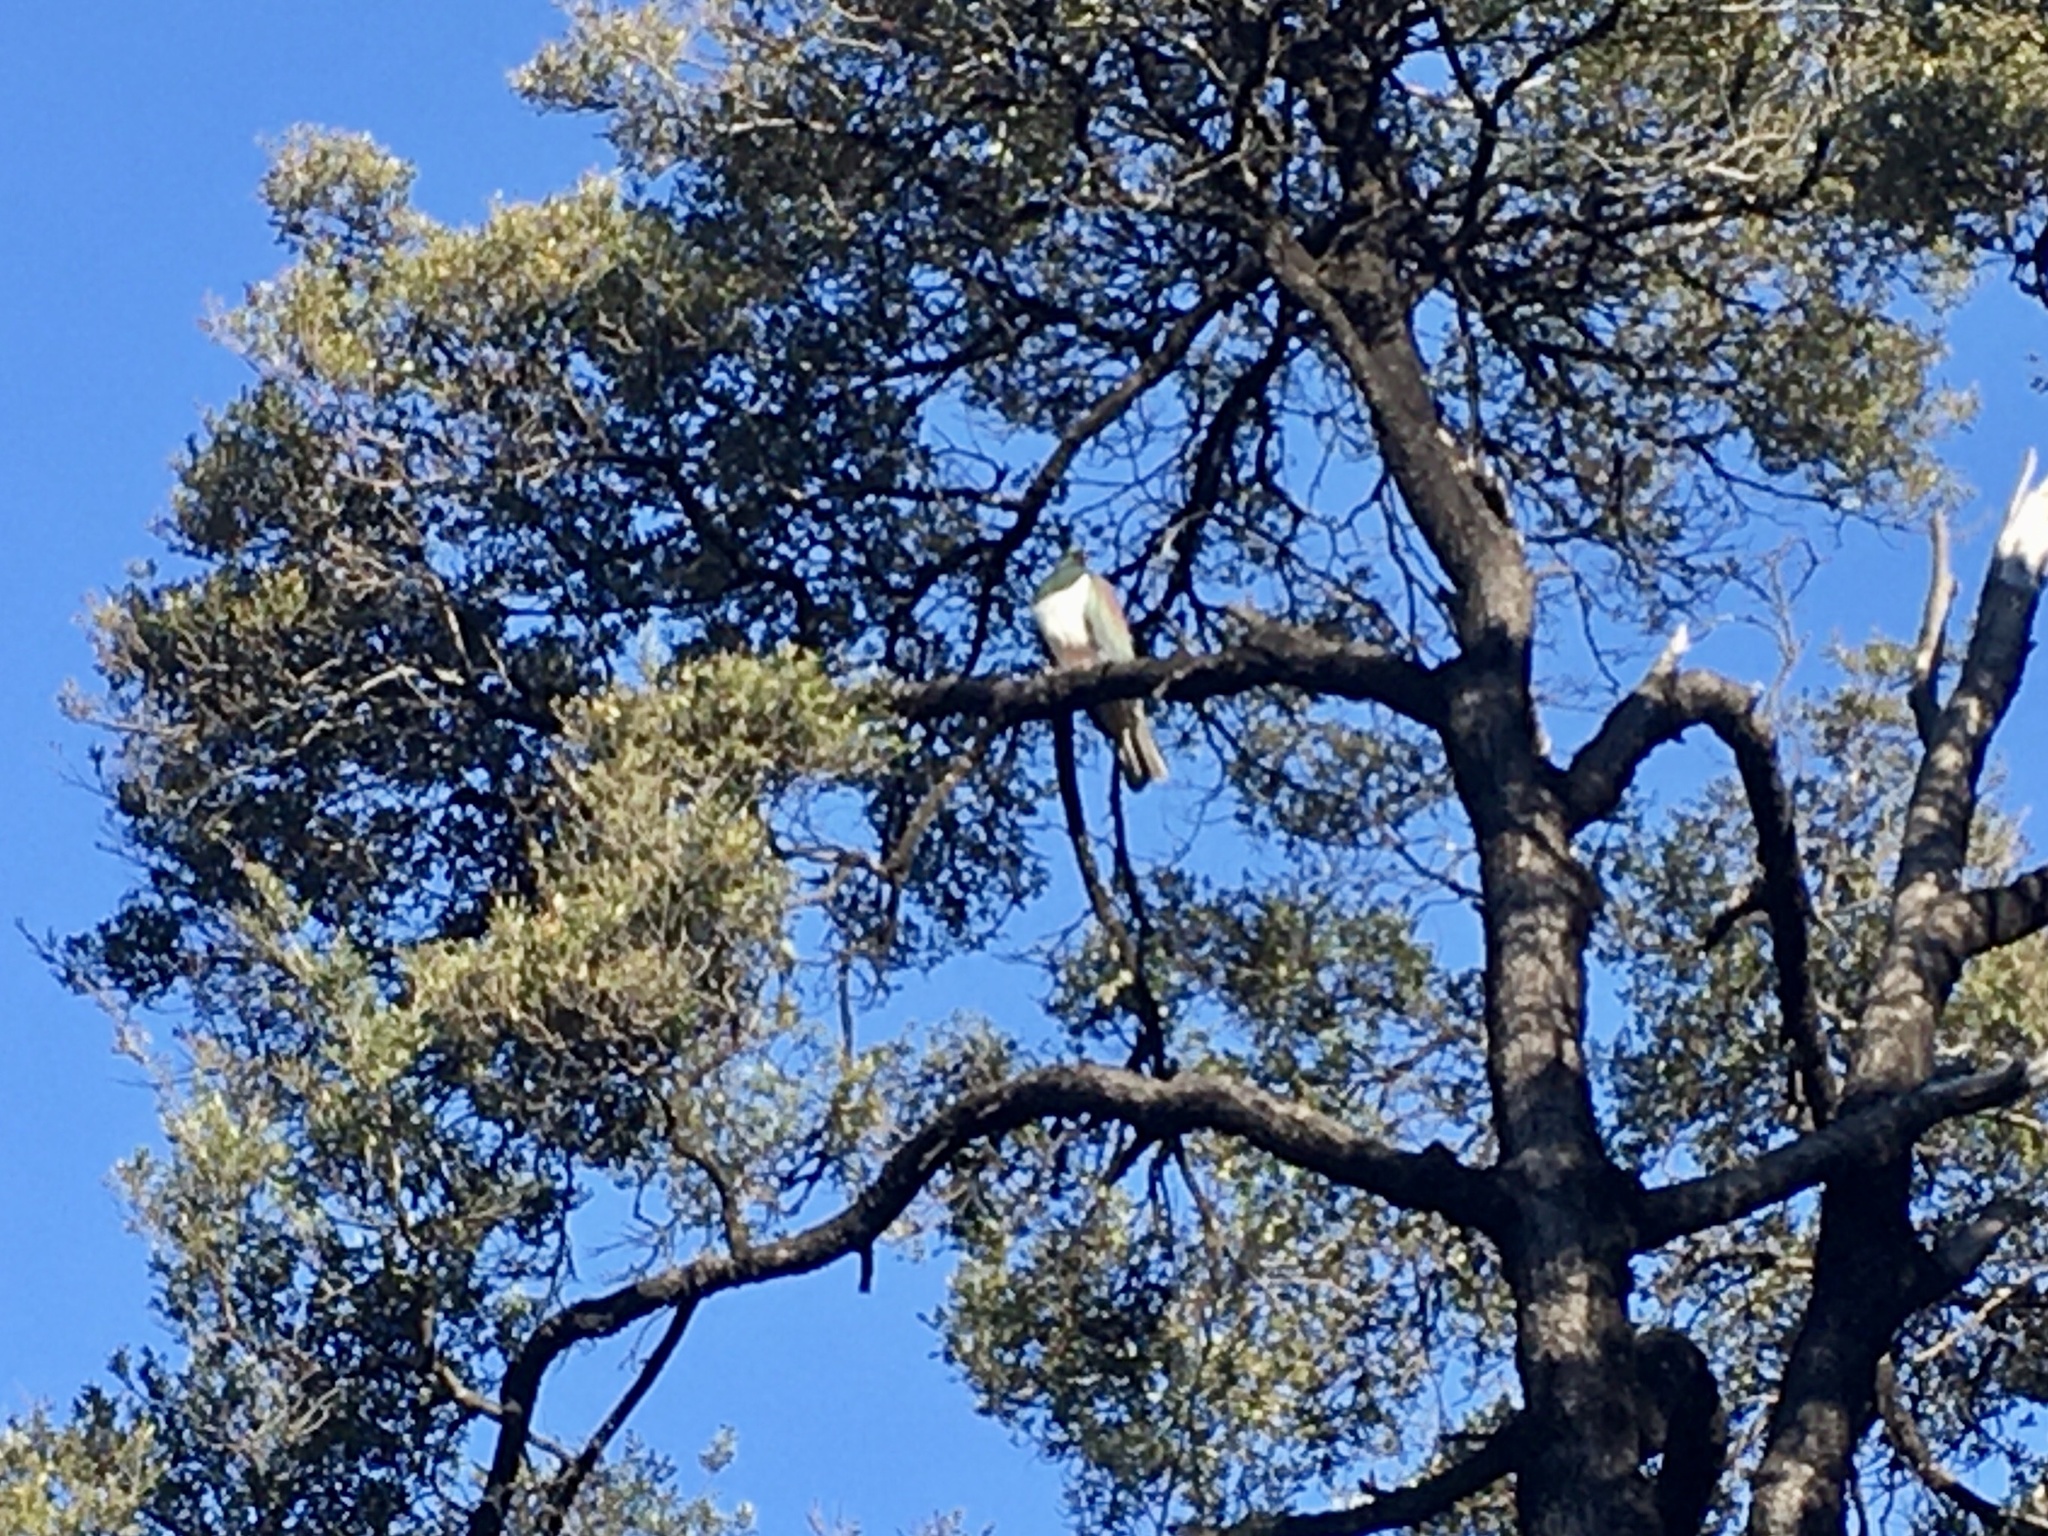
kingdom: Animalia
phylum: Chordata
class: Aves
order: Columbiformes
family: Columbidae
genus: Hemiphaga
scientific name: Hemiphaga novaeseelandiae
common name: New zealand pigeon
